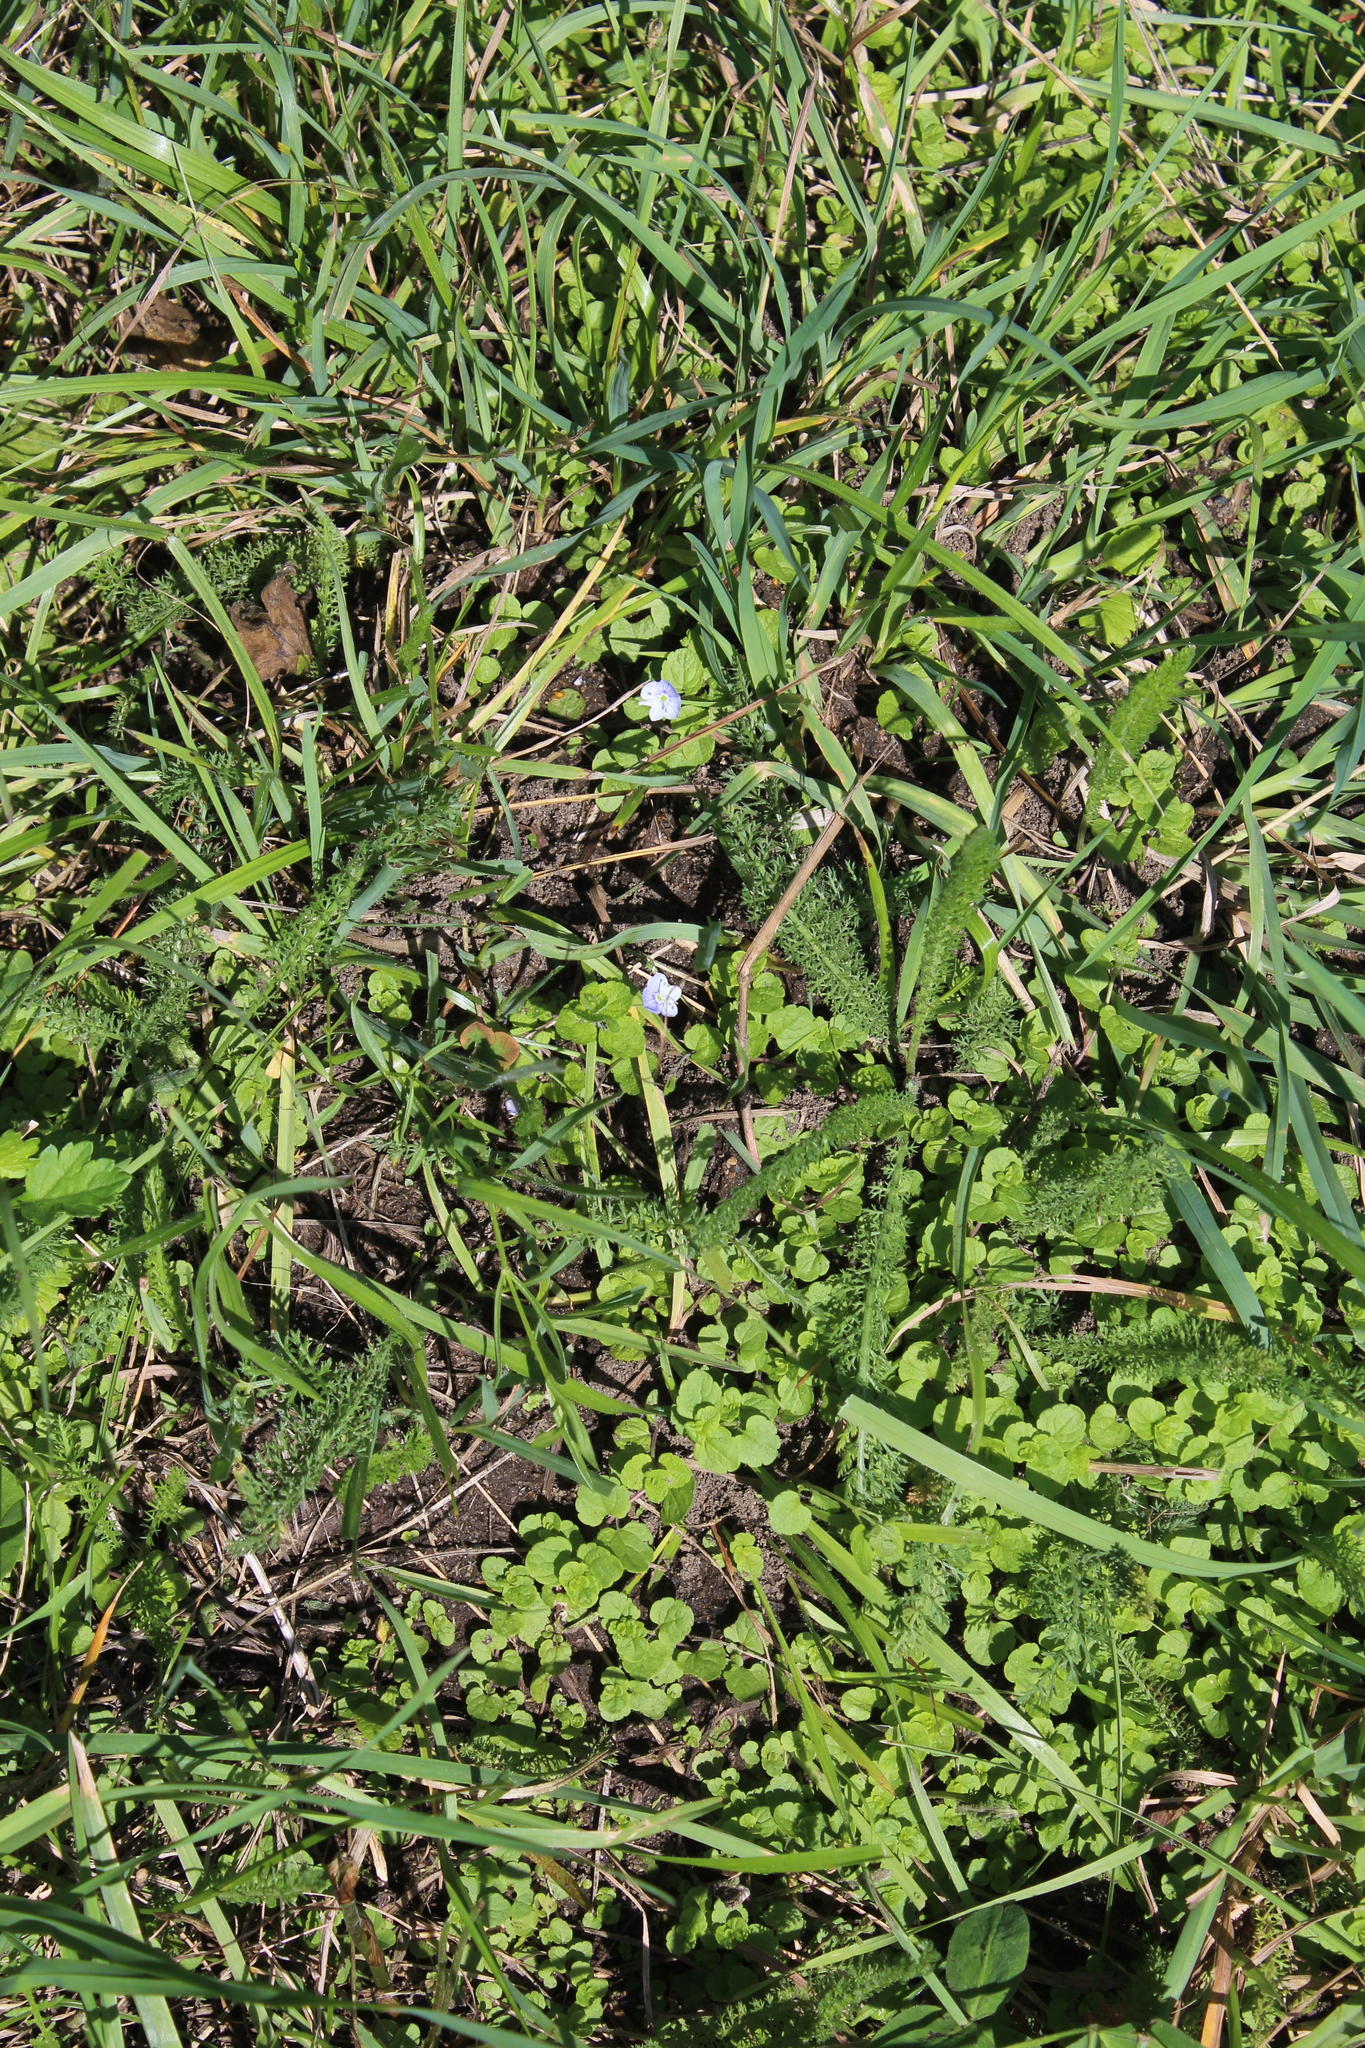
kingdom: Plantae
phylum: Tracheophyta
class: Magnoliopsida
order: Lamiales
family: Plantaginaceae
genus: Veronica
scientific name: Veronica filiformis
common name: Slender speedwell
